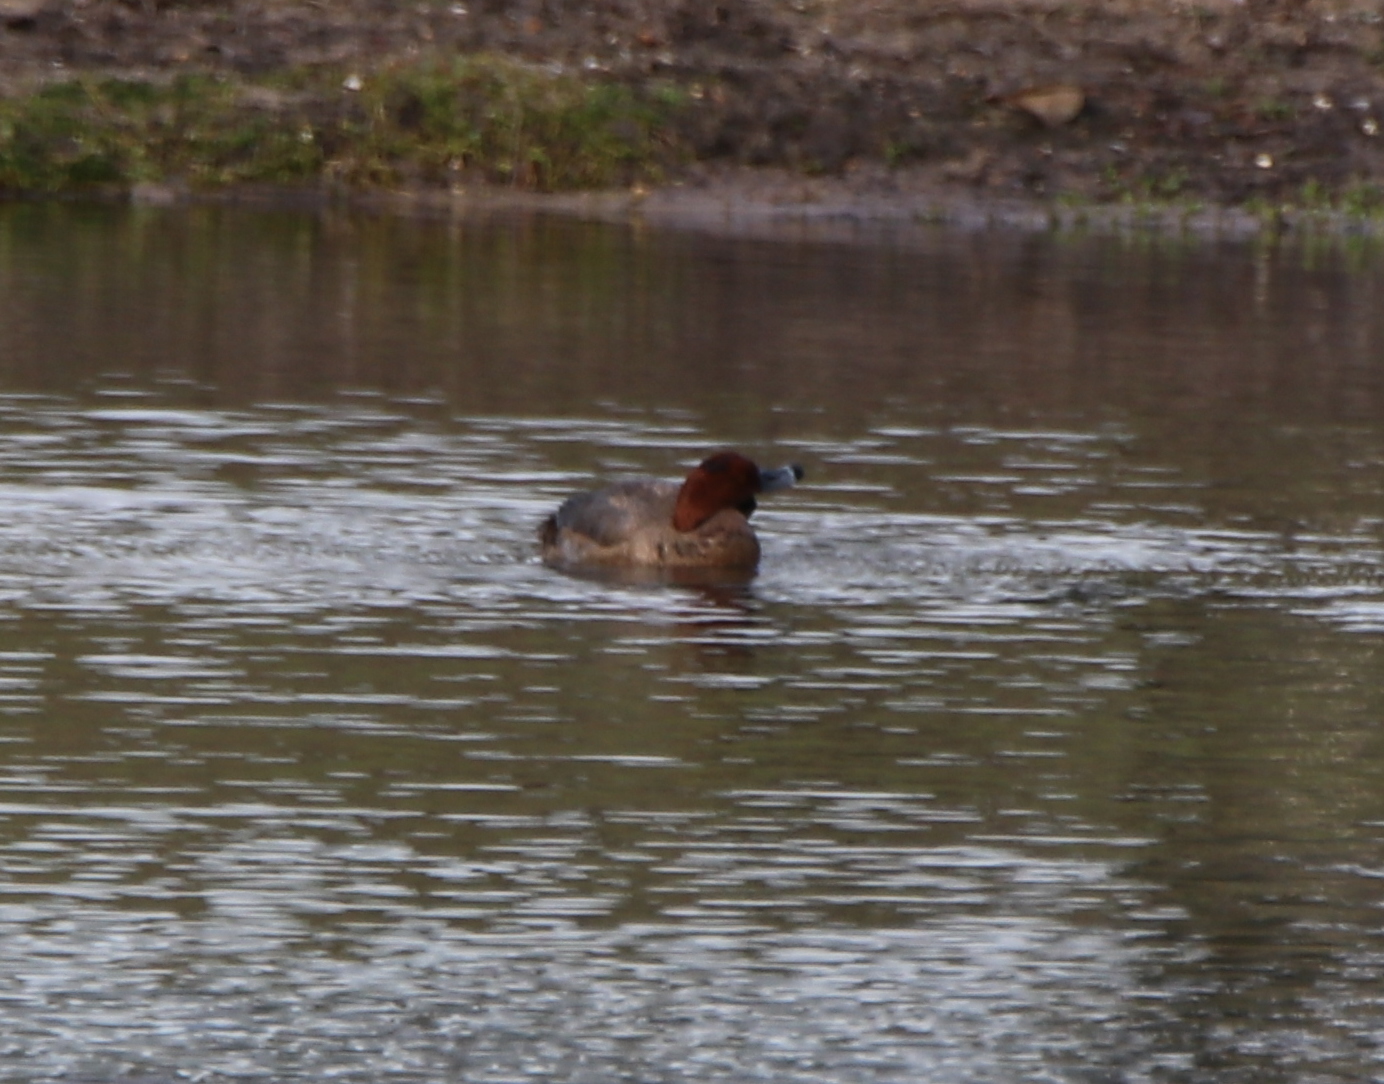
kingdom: Animalia
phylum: Chordata
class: Aves
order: Anseriformes
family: Anatidae
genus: Aythya
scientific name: Aythya americana
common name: Redhead
